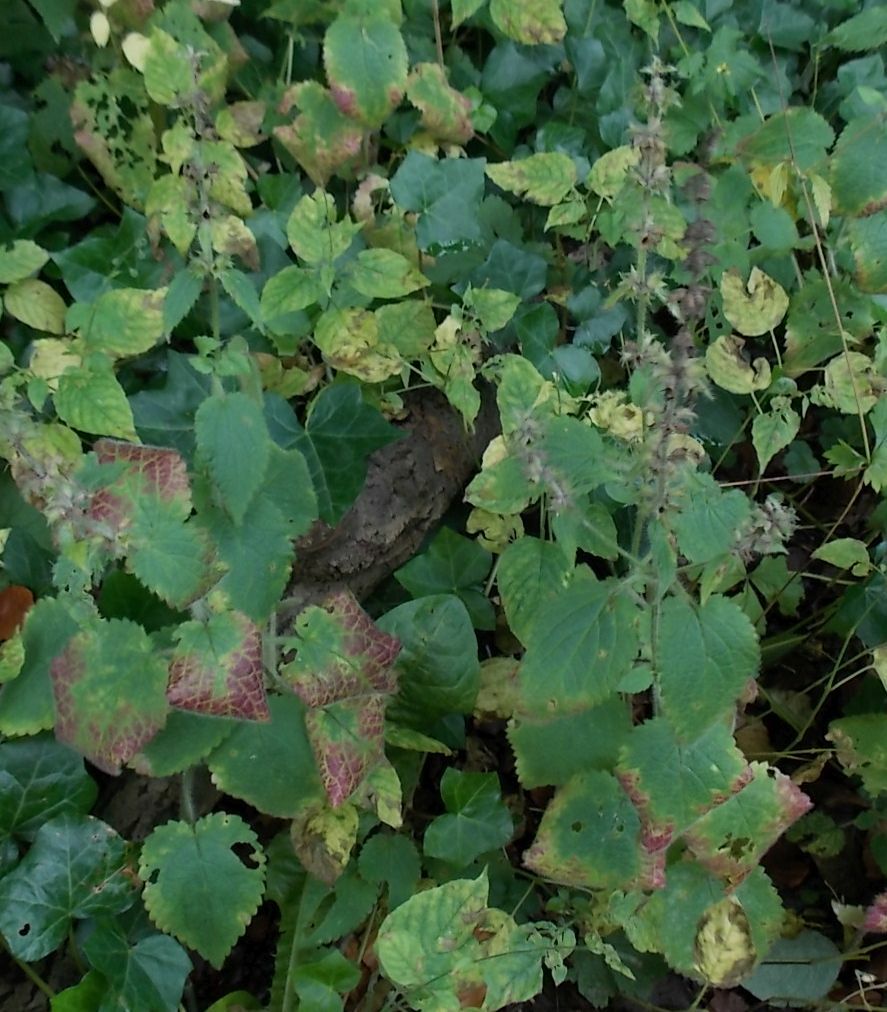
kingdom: Plantae
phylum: Tracheophyta
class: Magnoliopsida
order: Lamiales
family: Lamiaceae
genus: Stachys
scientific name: Stachys sylvatica
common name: Hedge woundwort
